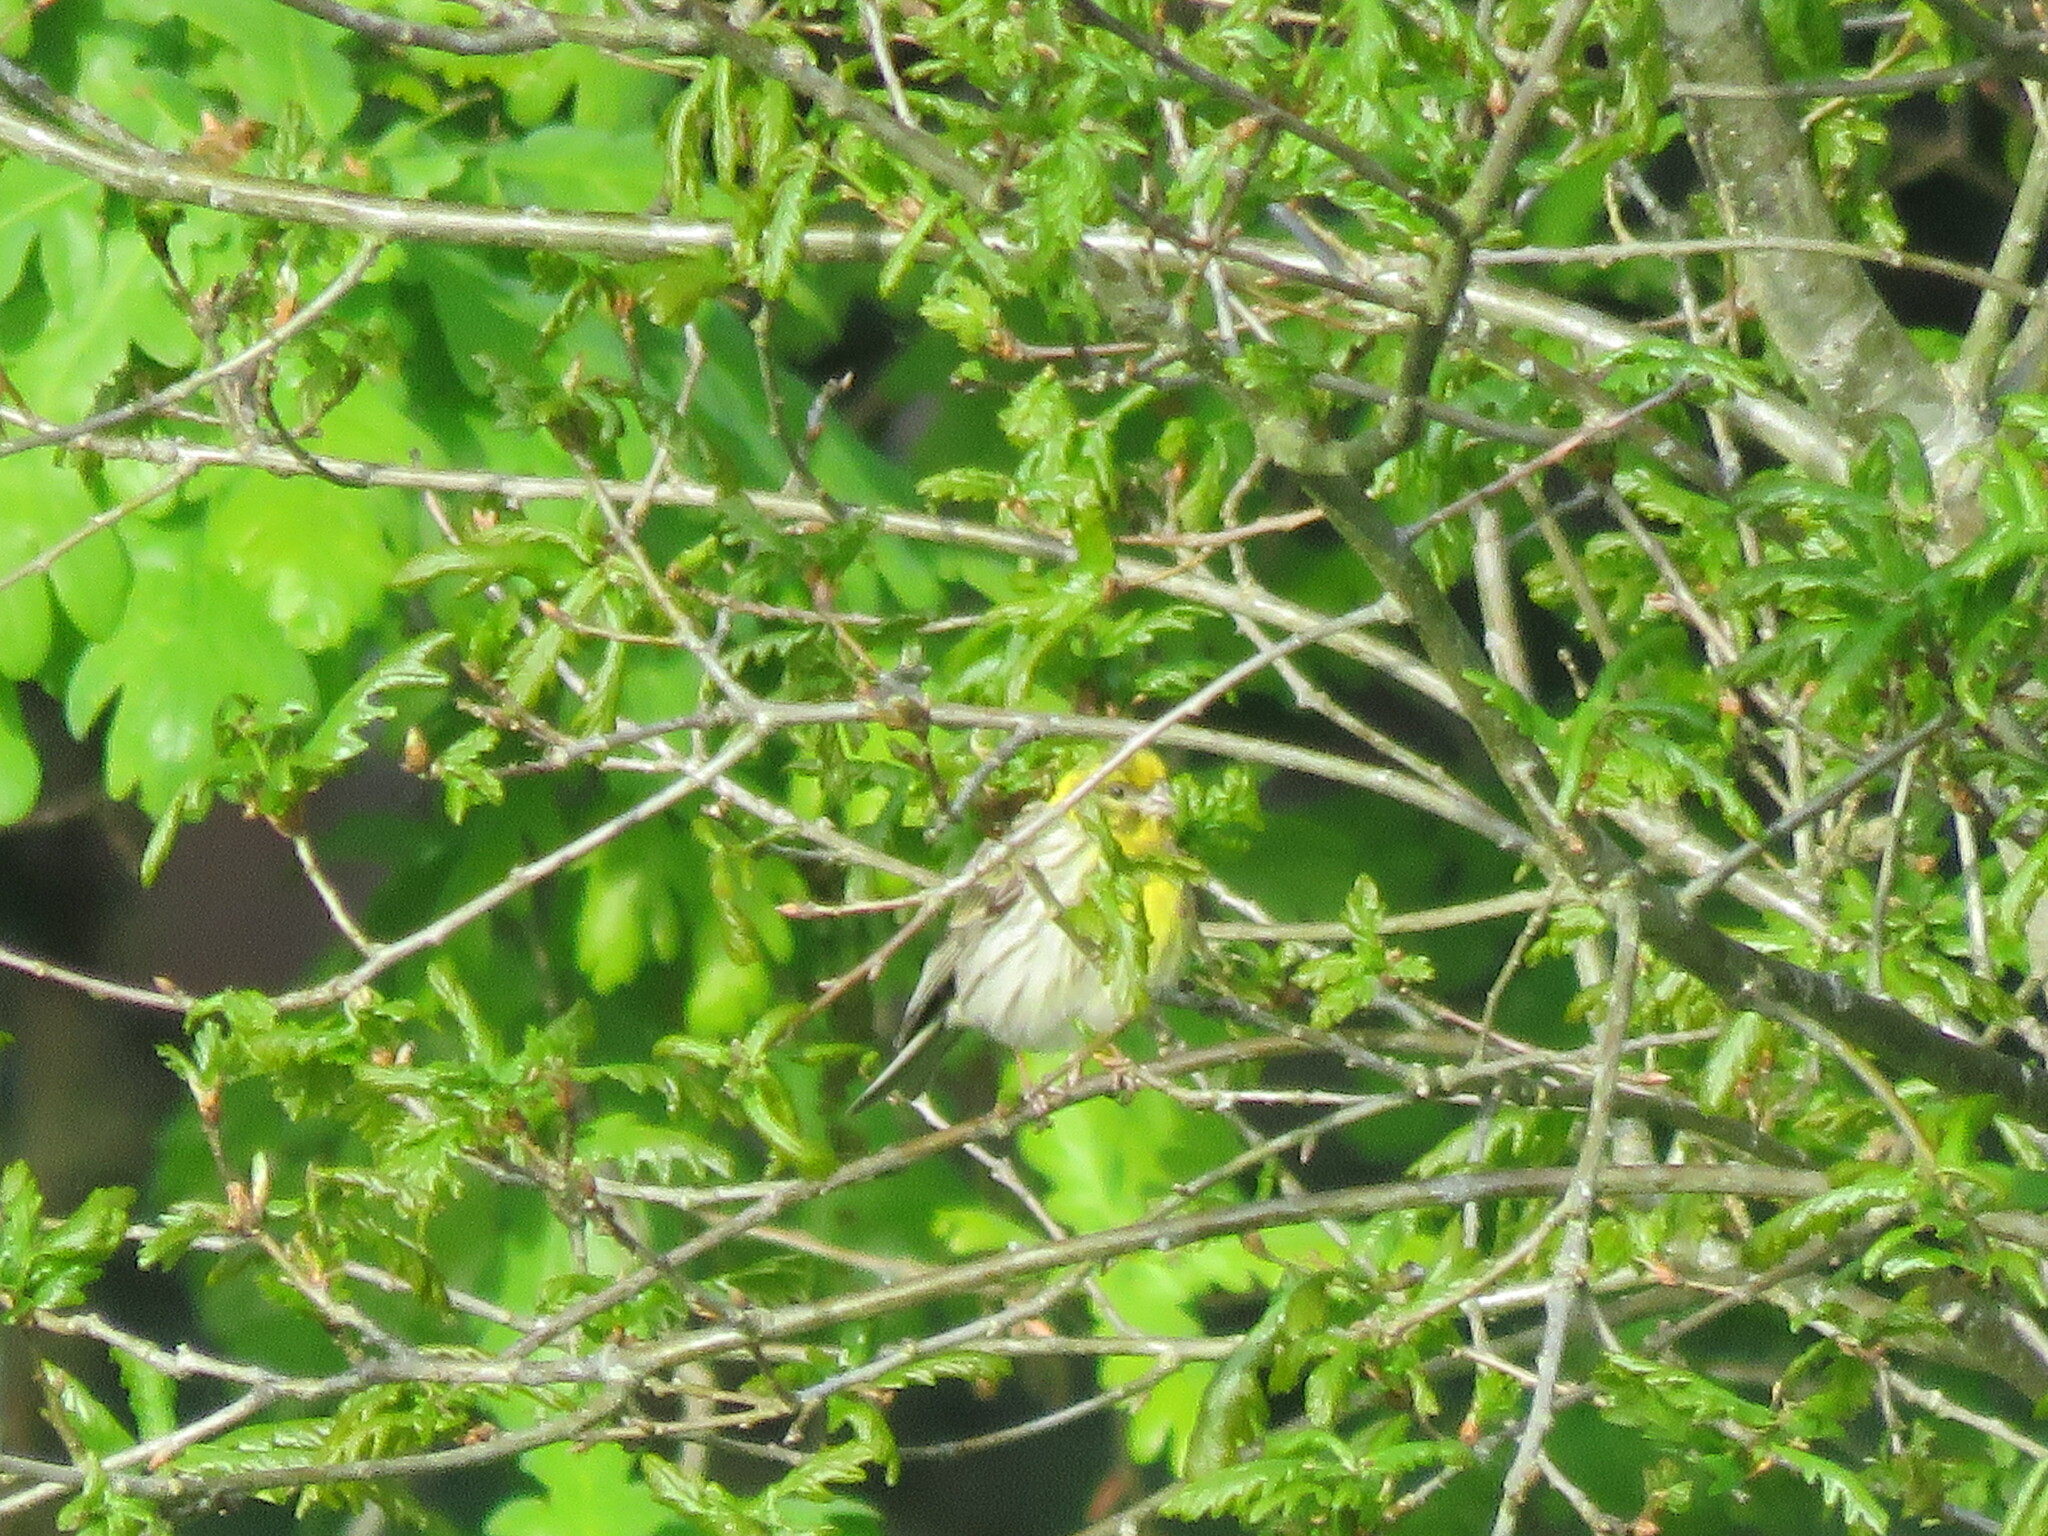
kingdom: Animalia
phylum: Chordata
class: Aves
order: Passeriformes
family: Fringillidae
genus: Serinus
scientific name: Serinus serinus
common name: European serin
